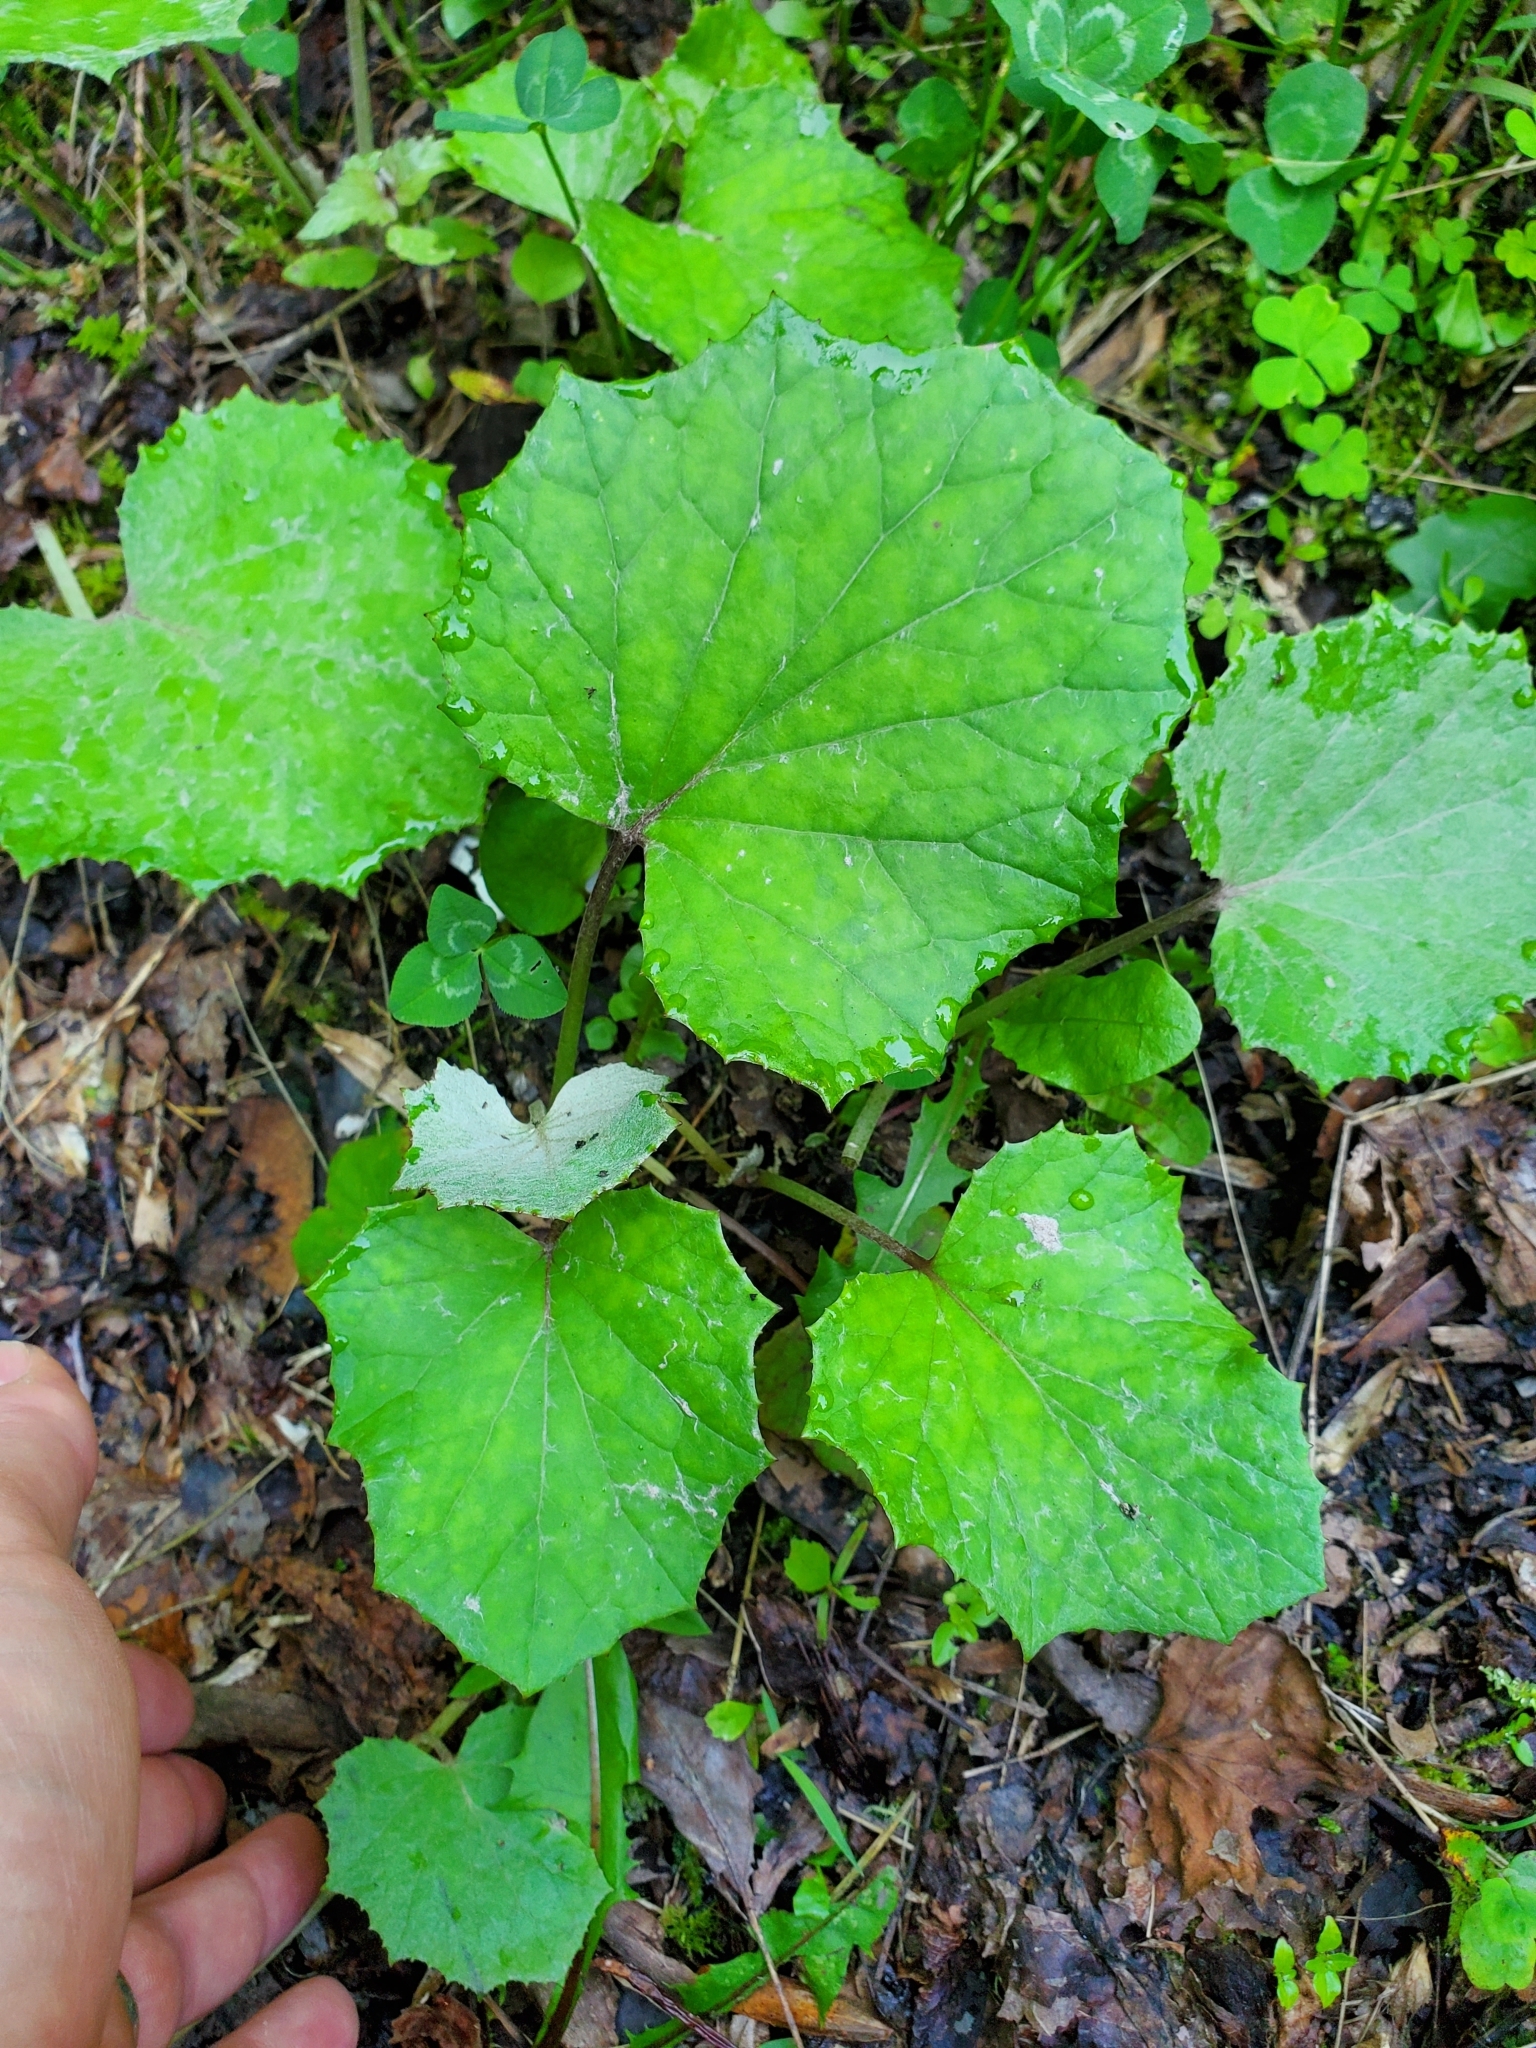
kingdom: Plantae
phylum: Tracheophyta
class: Magnoliopsida
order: Asterales
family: Asteraceae
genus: Tussilago
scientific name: Tussilago farfara
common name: Coltsfoot
